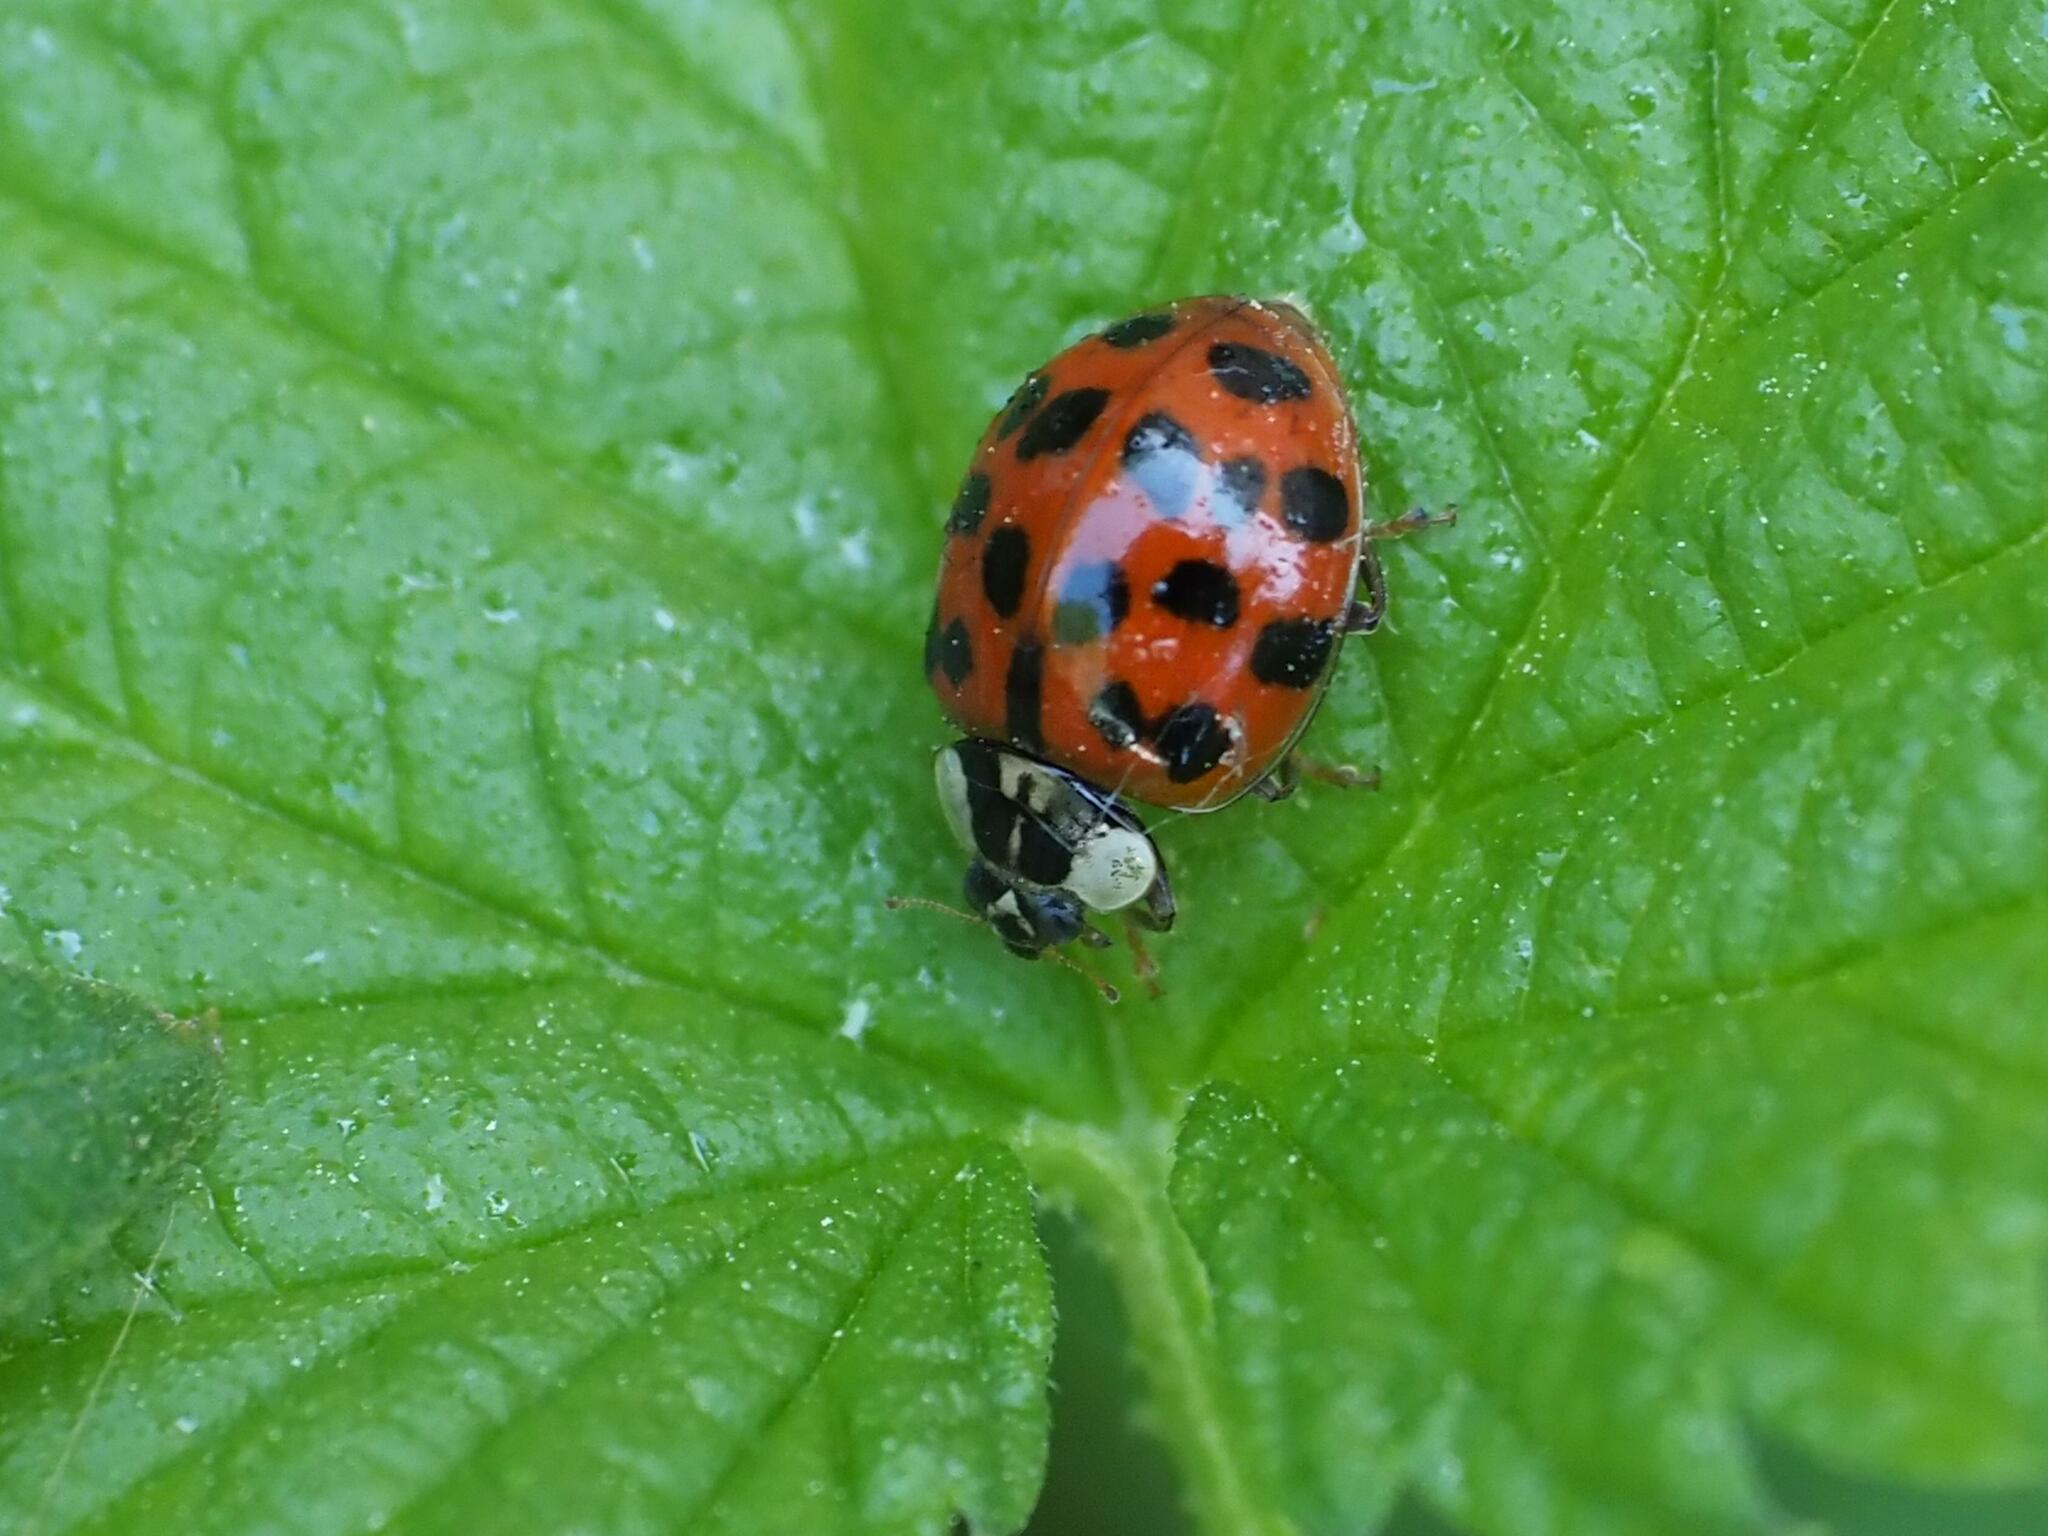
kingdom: Animalia
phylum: Arthropoda
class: Insecta
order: Coleoptera
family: Coccinellidae
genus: Harmonia
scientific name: Harmonia axyridis
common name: Harlequin ladybird
